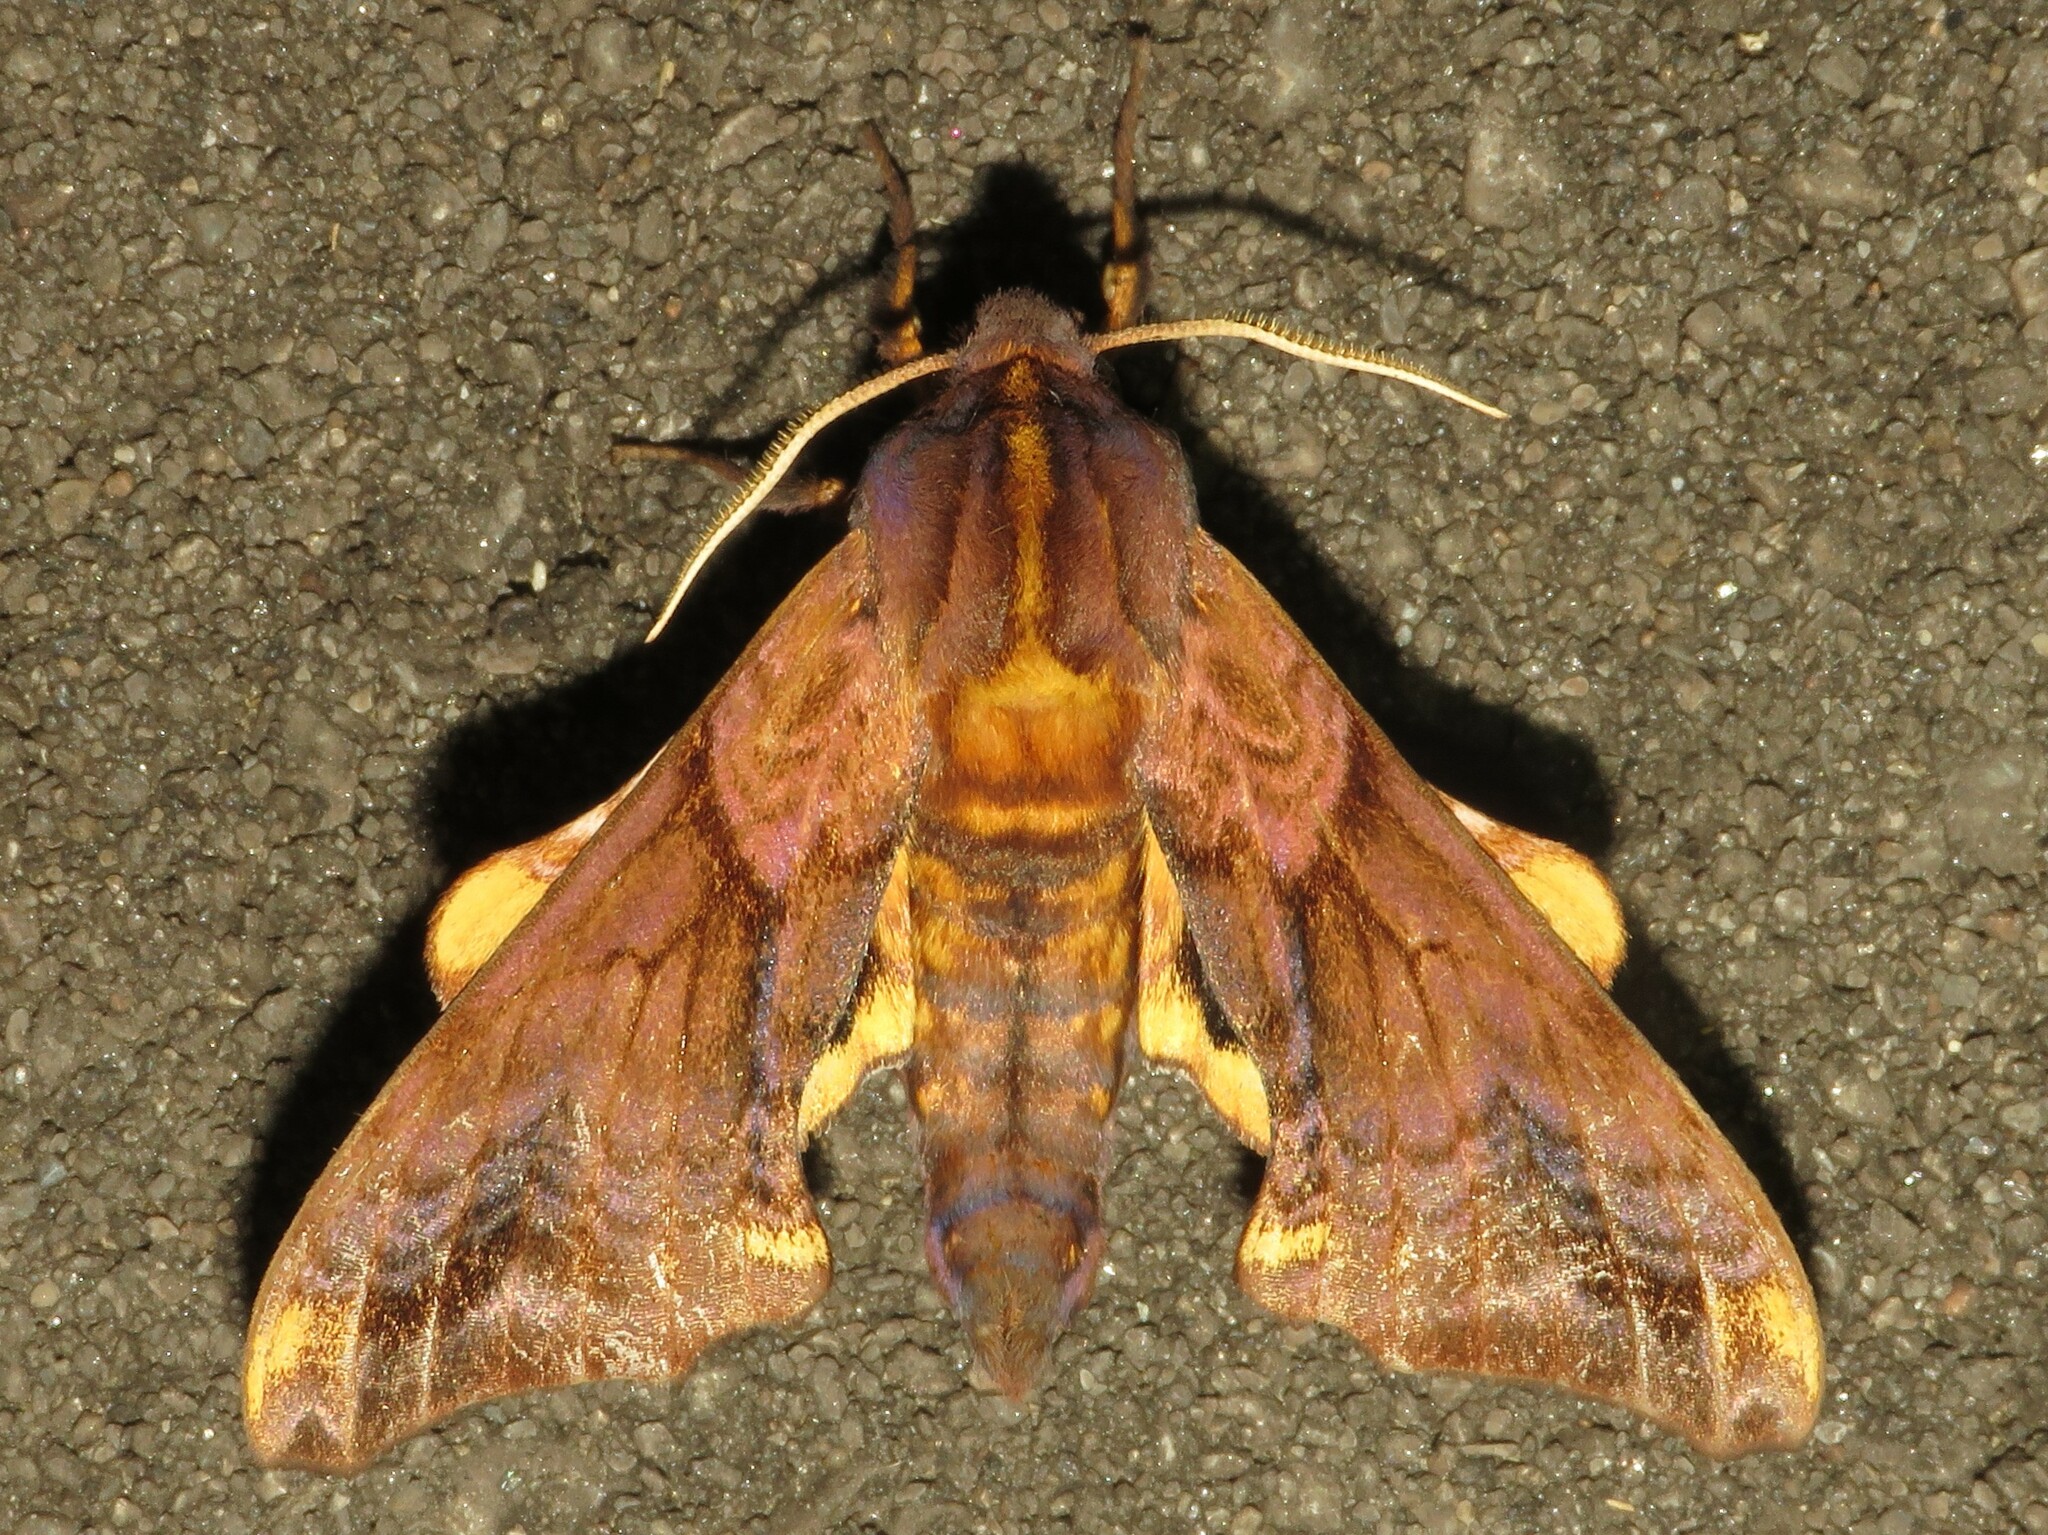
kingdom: Animalia
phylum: Arthropoda
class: Insecta
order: Lepidoptera
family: Sphingidae
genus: Paonias
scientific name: Paonias myops
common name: Small-eyed sphinx
